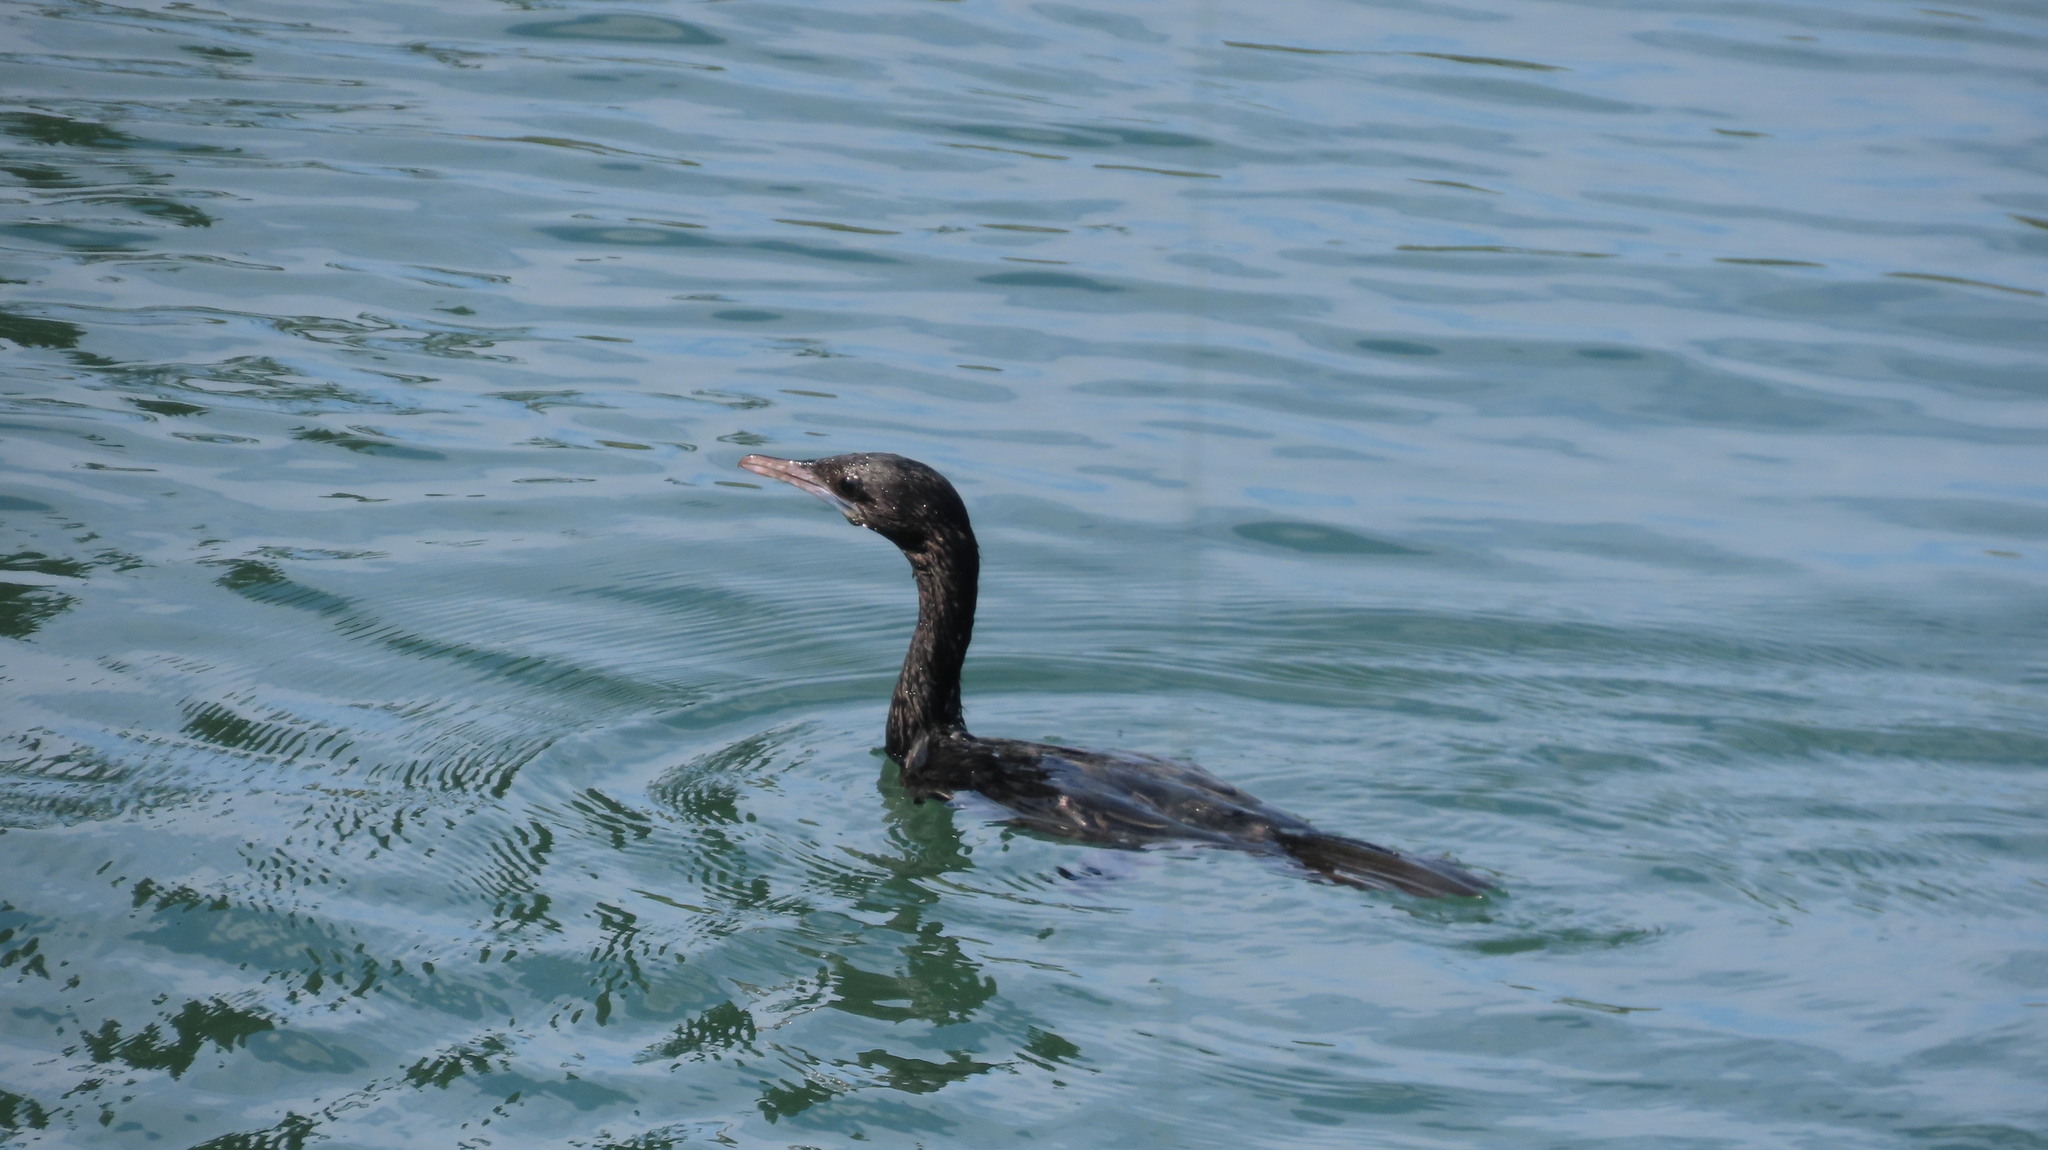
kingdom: Animalia
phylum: Chordata
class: Aves
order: Suliformes
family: Phalacrocoracidae
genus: Microcarbo
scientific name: Microcarbo niger
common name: Little cormorant
